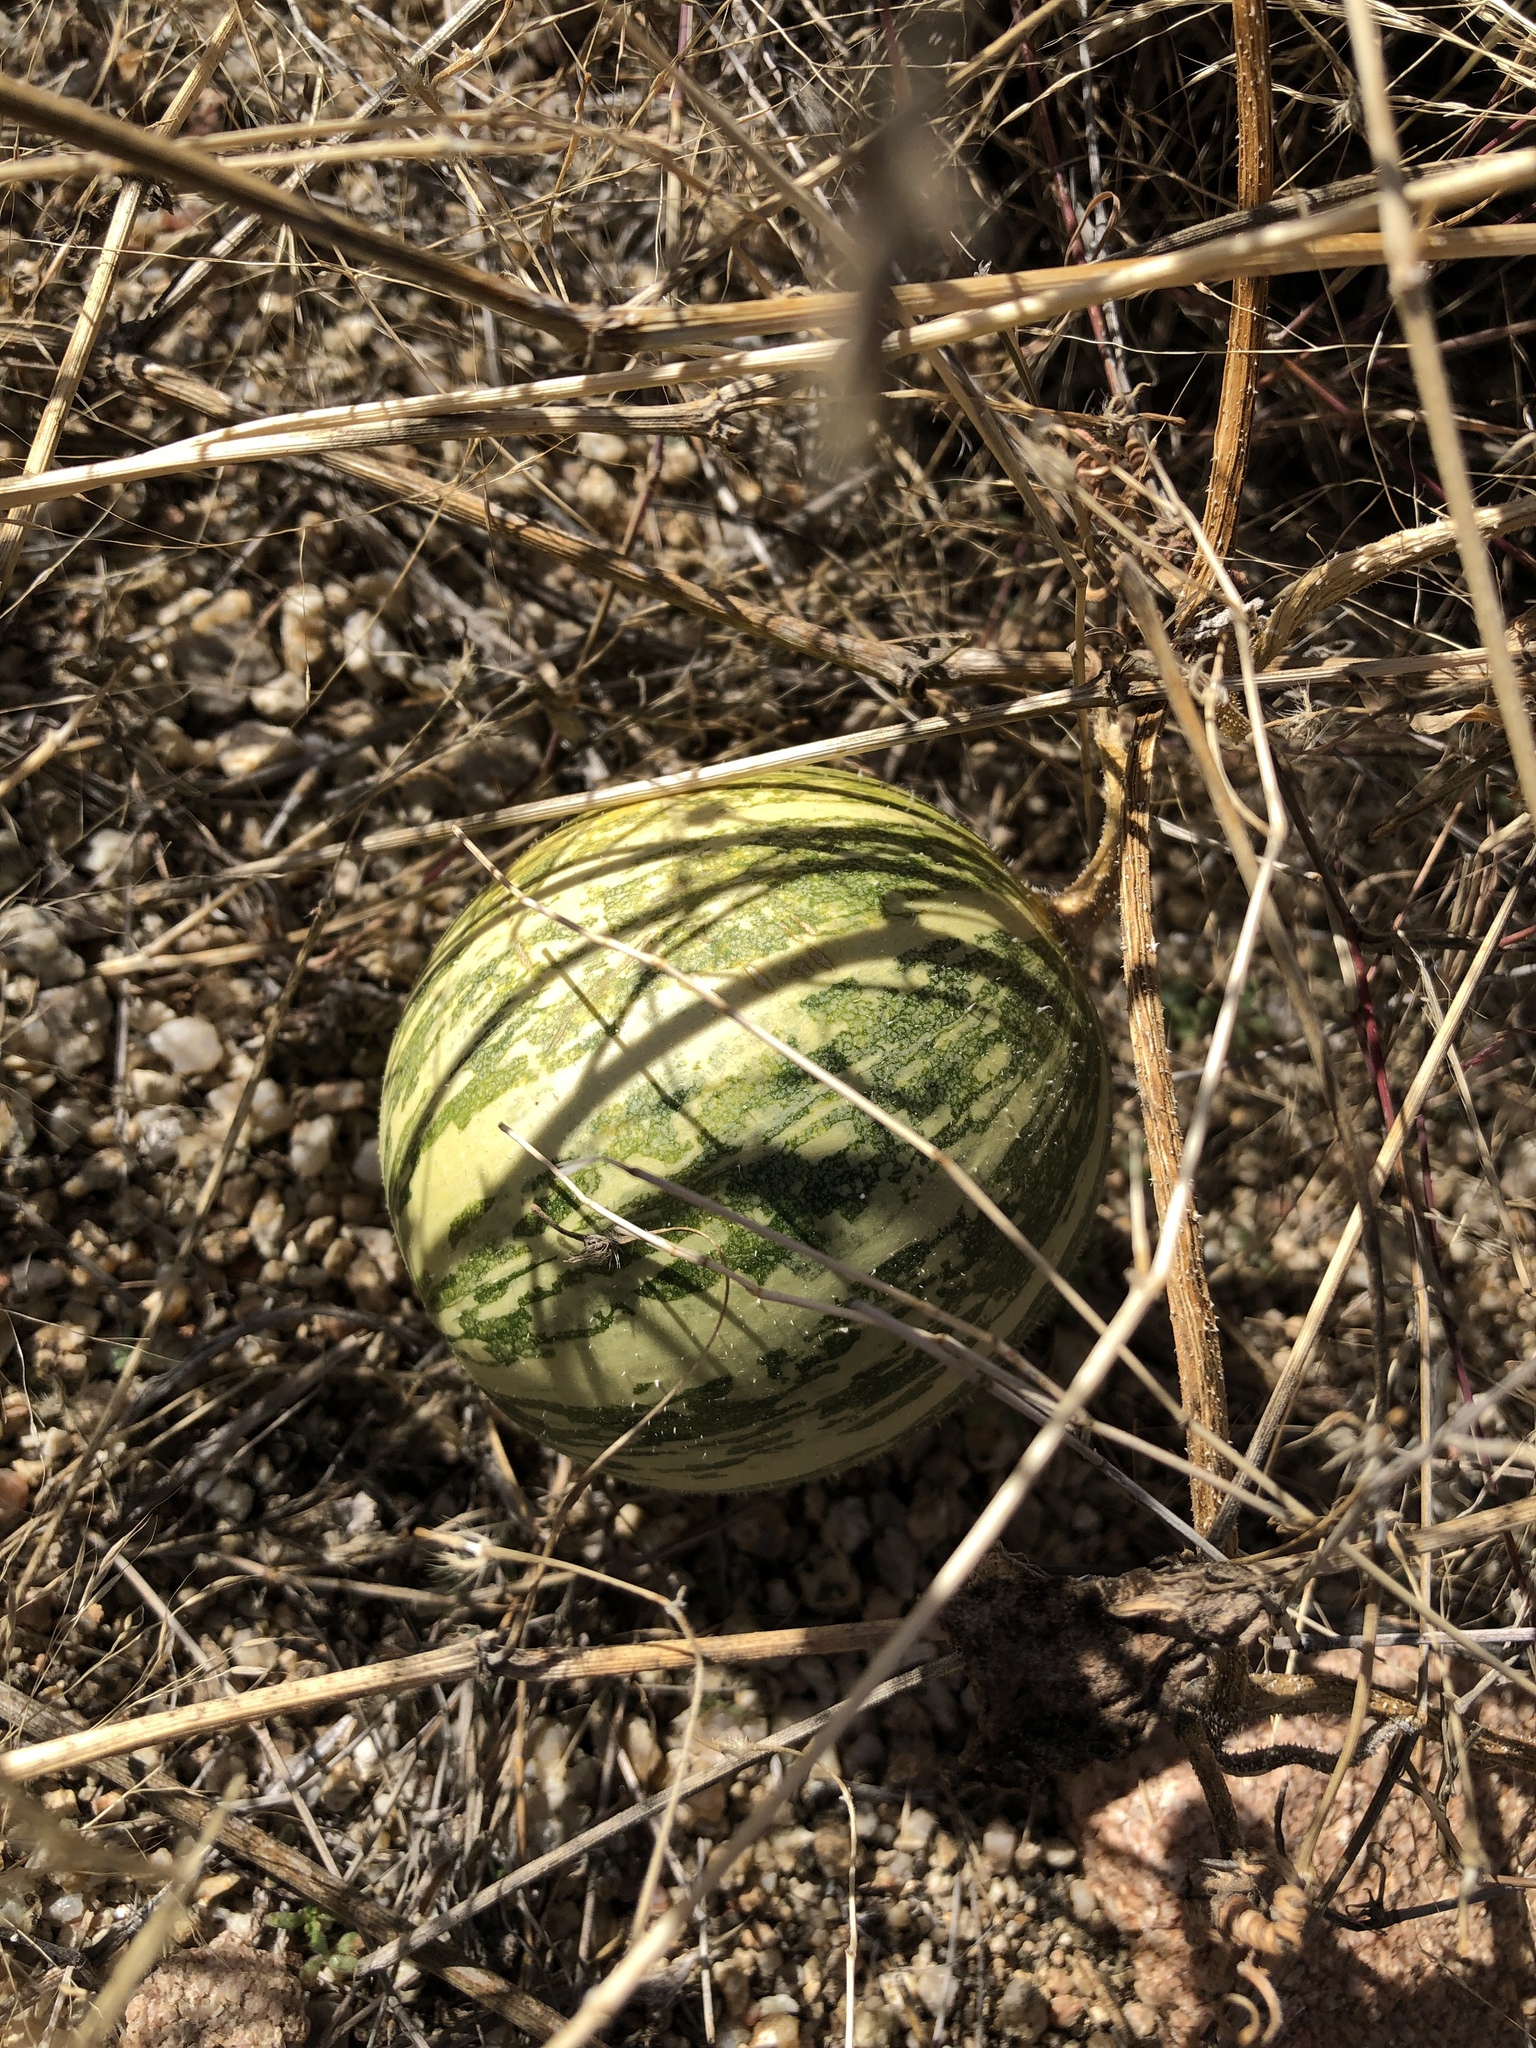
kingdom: Plantae
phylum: Tracheophyta
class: Magnoliopsida
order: Cucurbitales
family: Cucurbitaceae
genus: Cucurbita
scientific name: Cucurbita foetidissima
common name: Buffalo gourd
